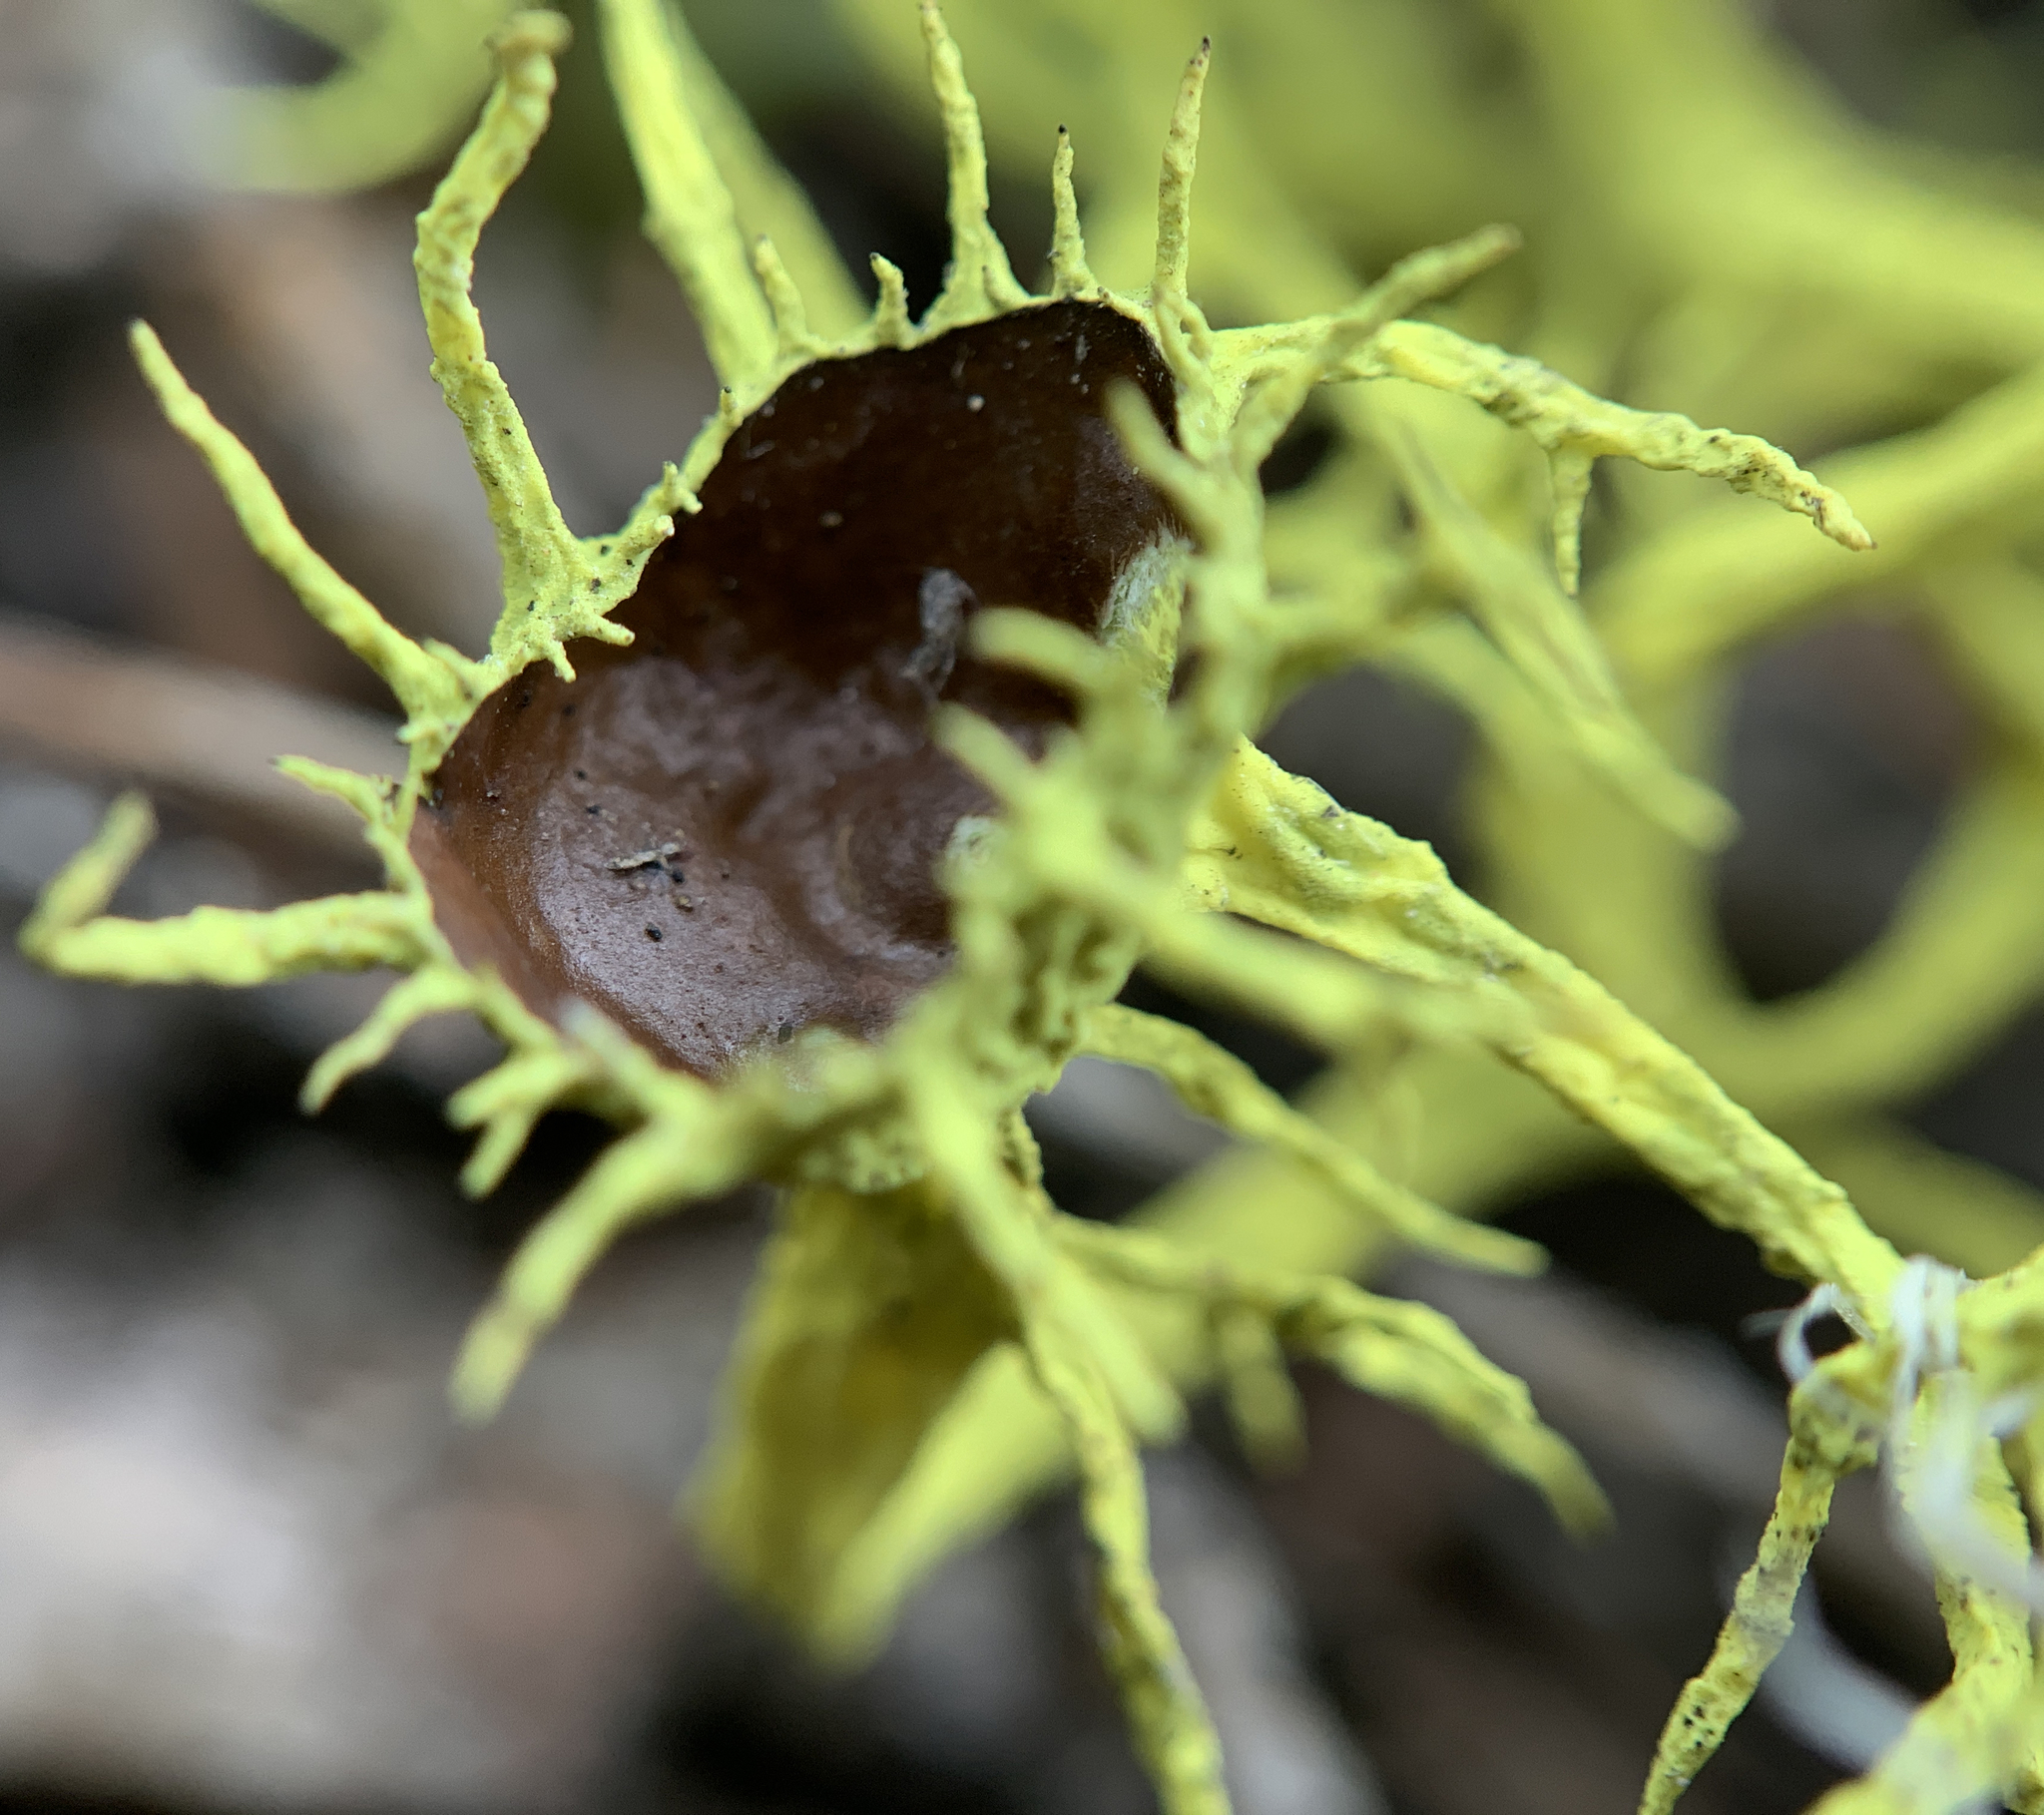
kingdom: Fungi
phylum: Ascomycota
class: Lecanoromycetes
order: Lecanorales
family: Parmeliaceae
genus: Letharia
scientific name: Letharia columbiana
